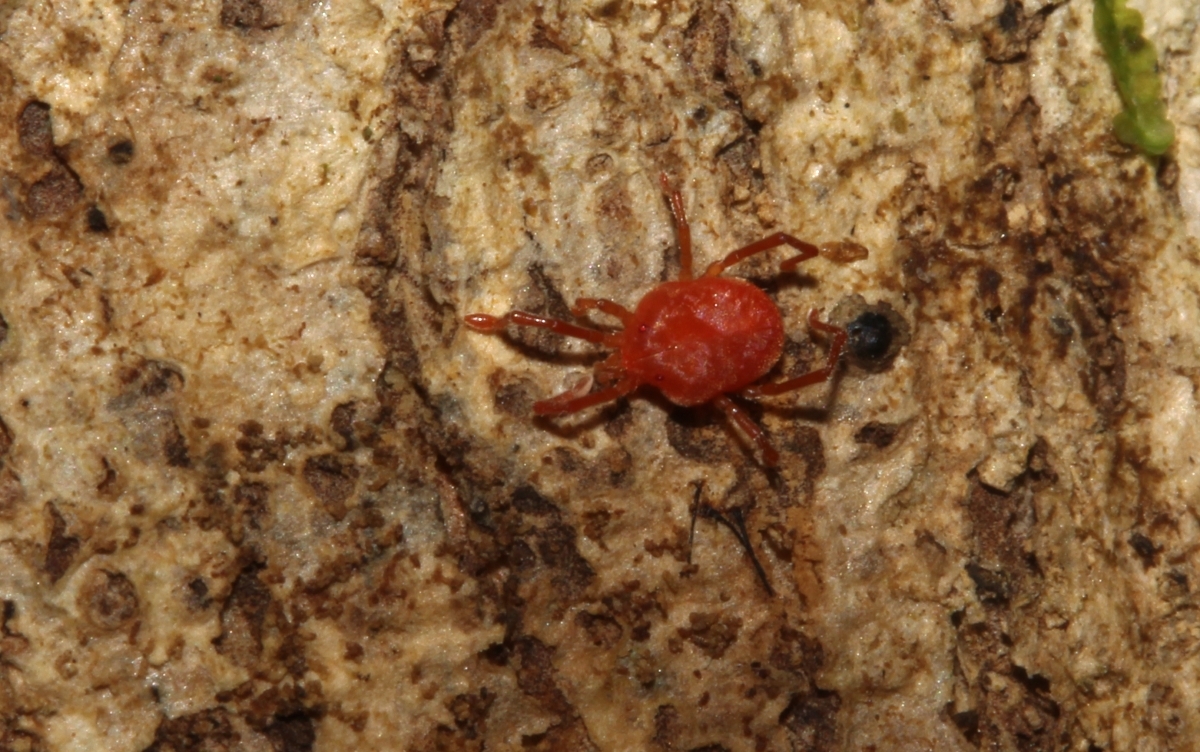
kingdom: Animalia
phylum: Arthropoda
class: Arachnida
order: Trombidiformes
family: Erythraeidae
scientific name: Erythraeidae
